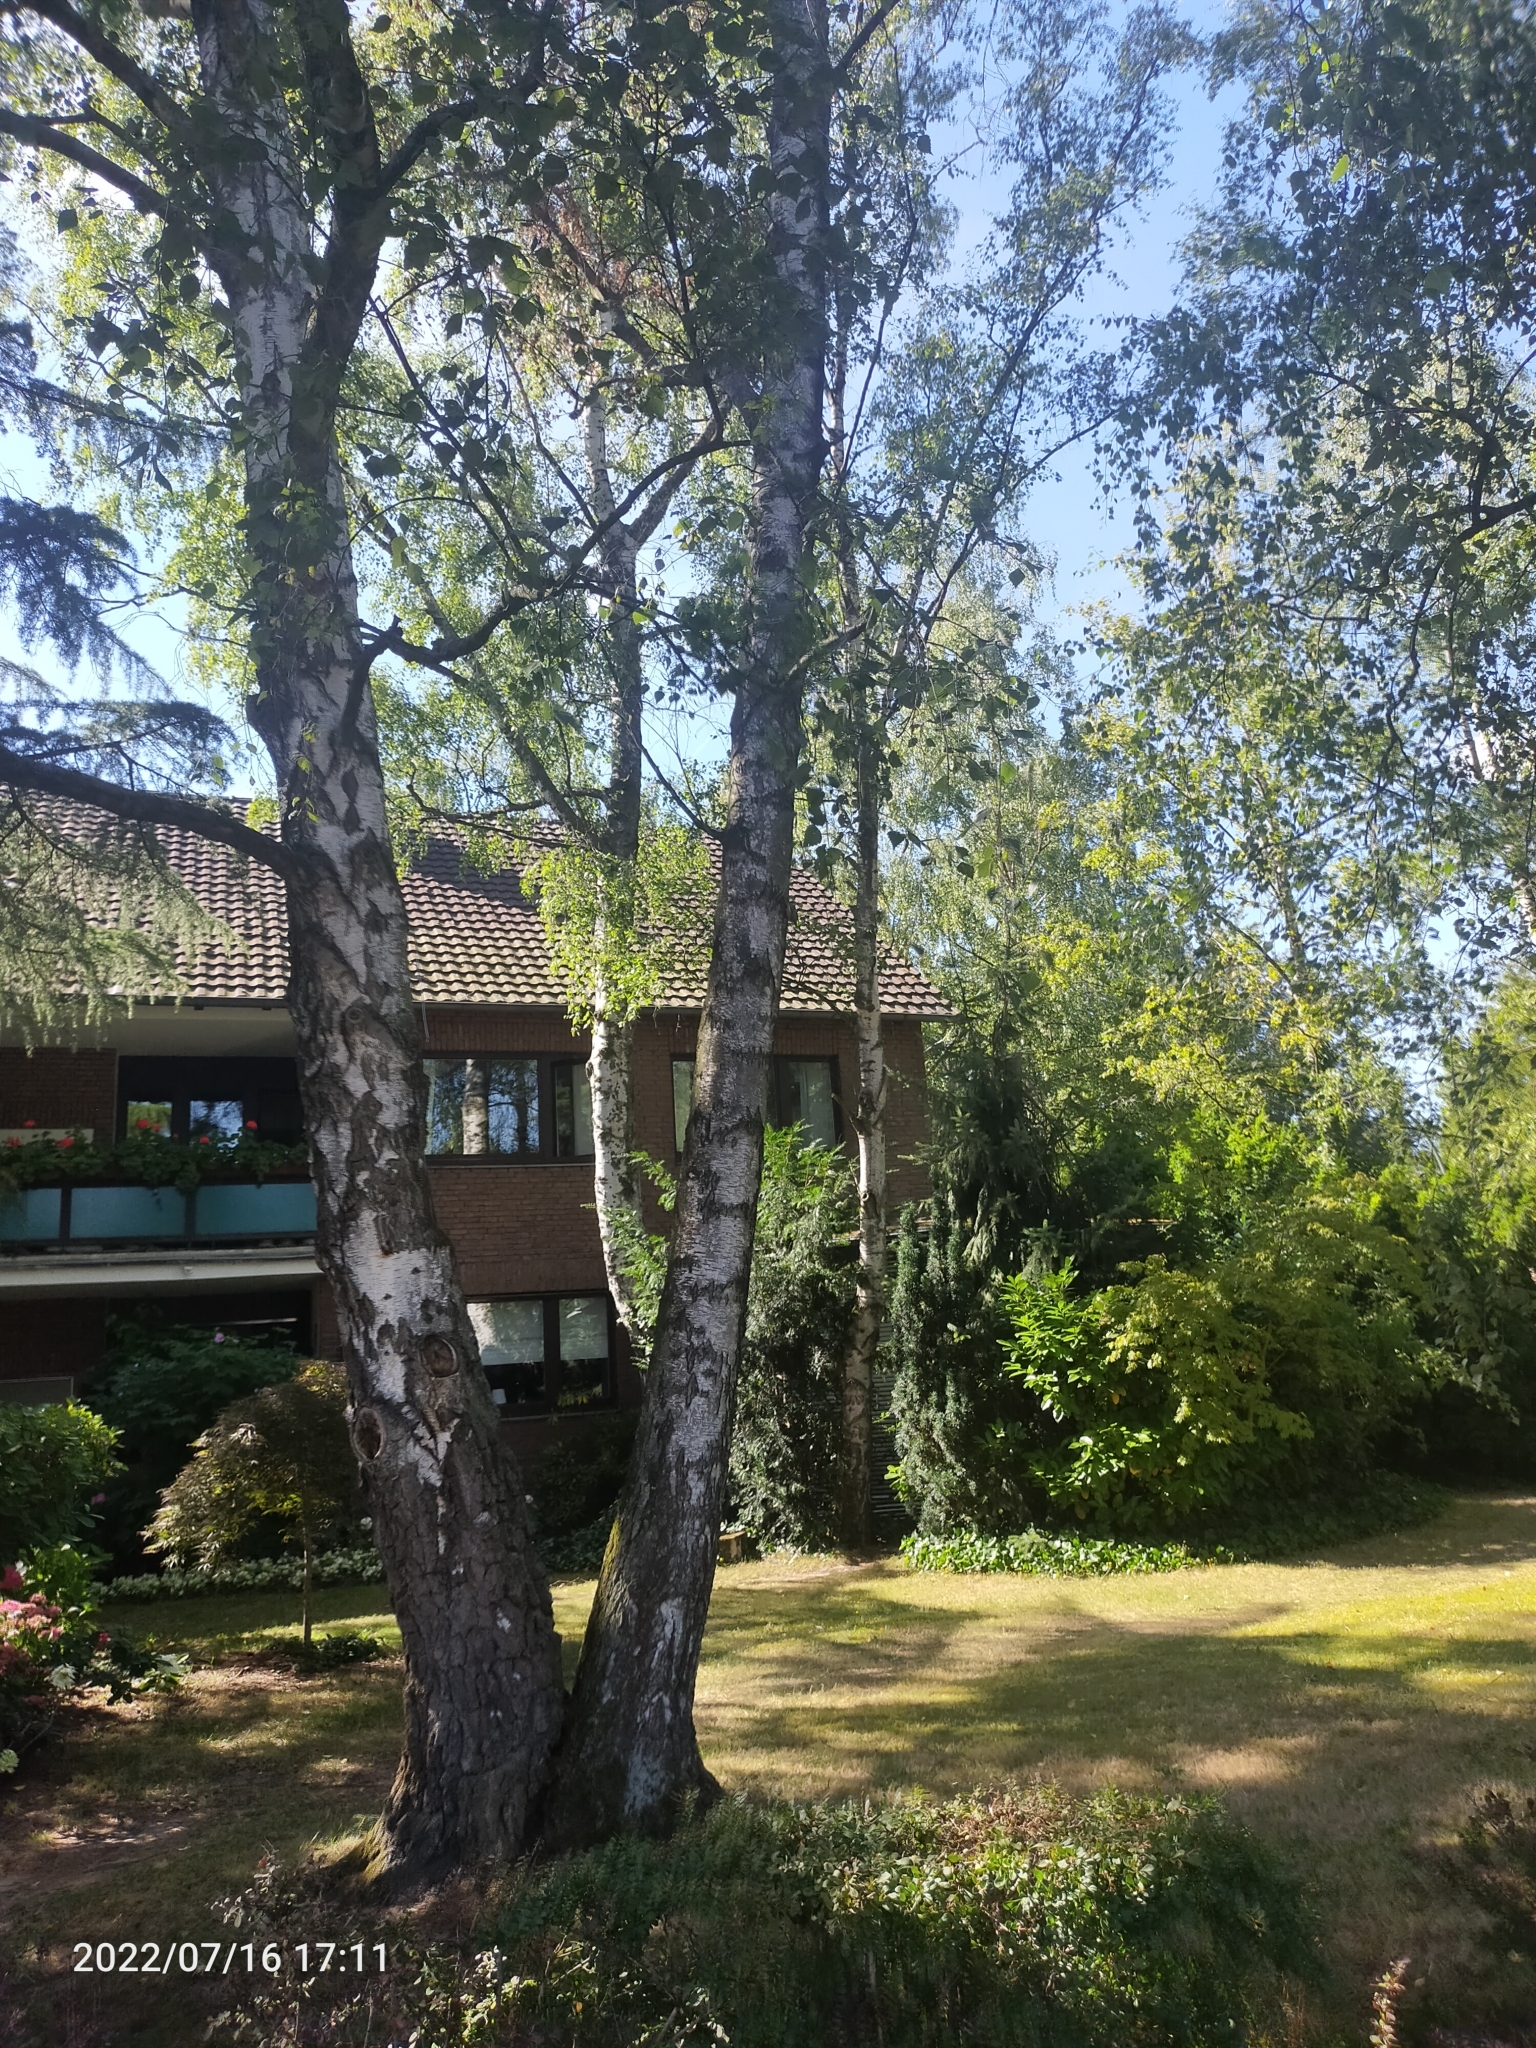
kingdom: Plantae
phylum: Tracheophyta
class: Magnoliopsida
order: Fagales
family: Betulaceae
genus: Betula
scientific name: Betula pendula
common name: Silver birch
